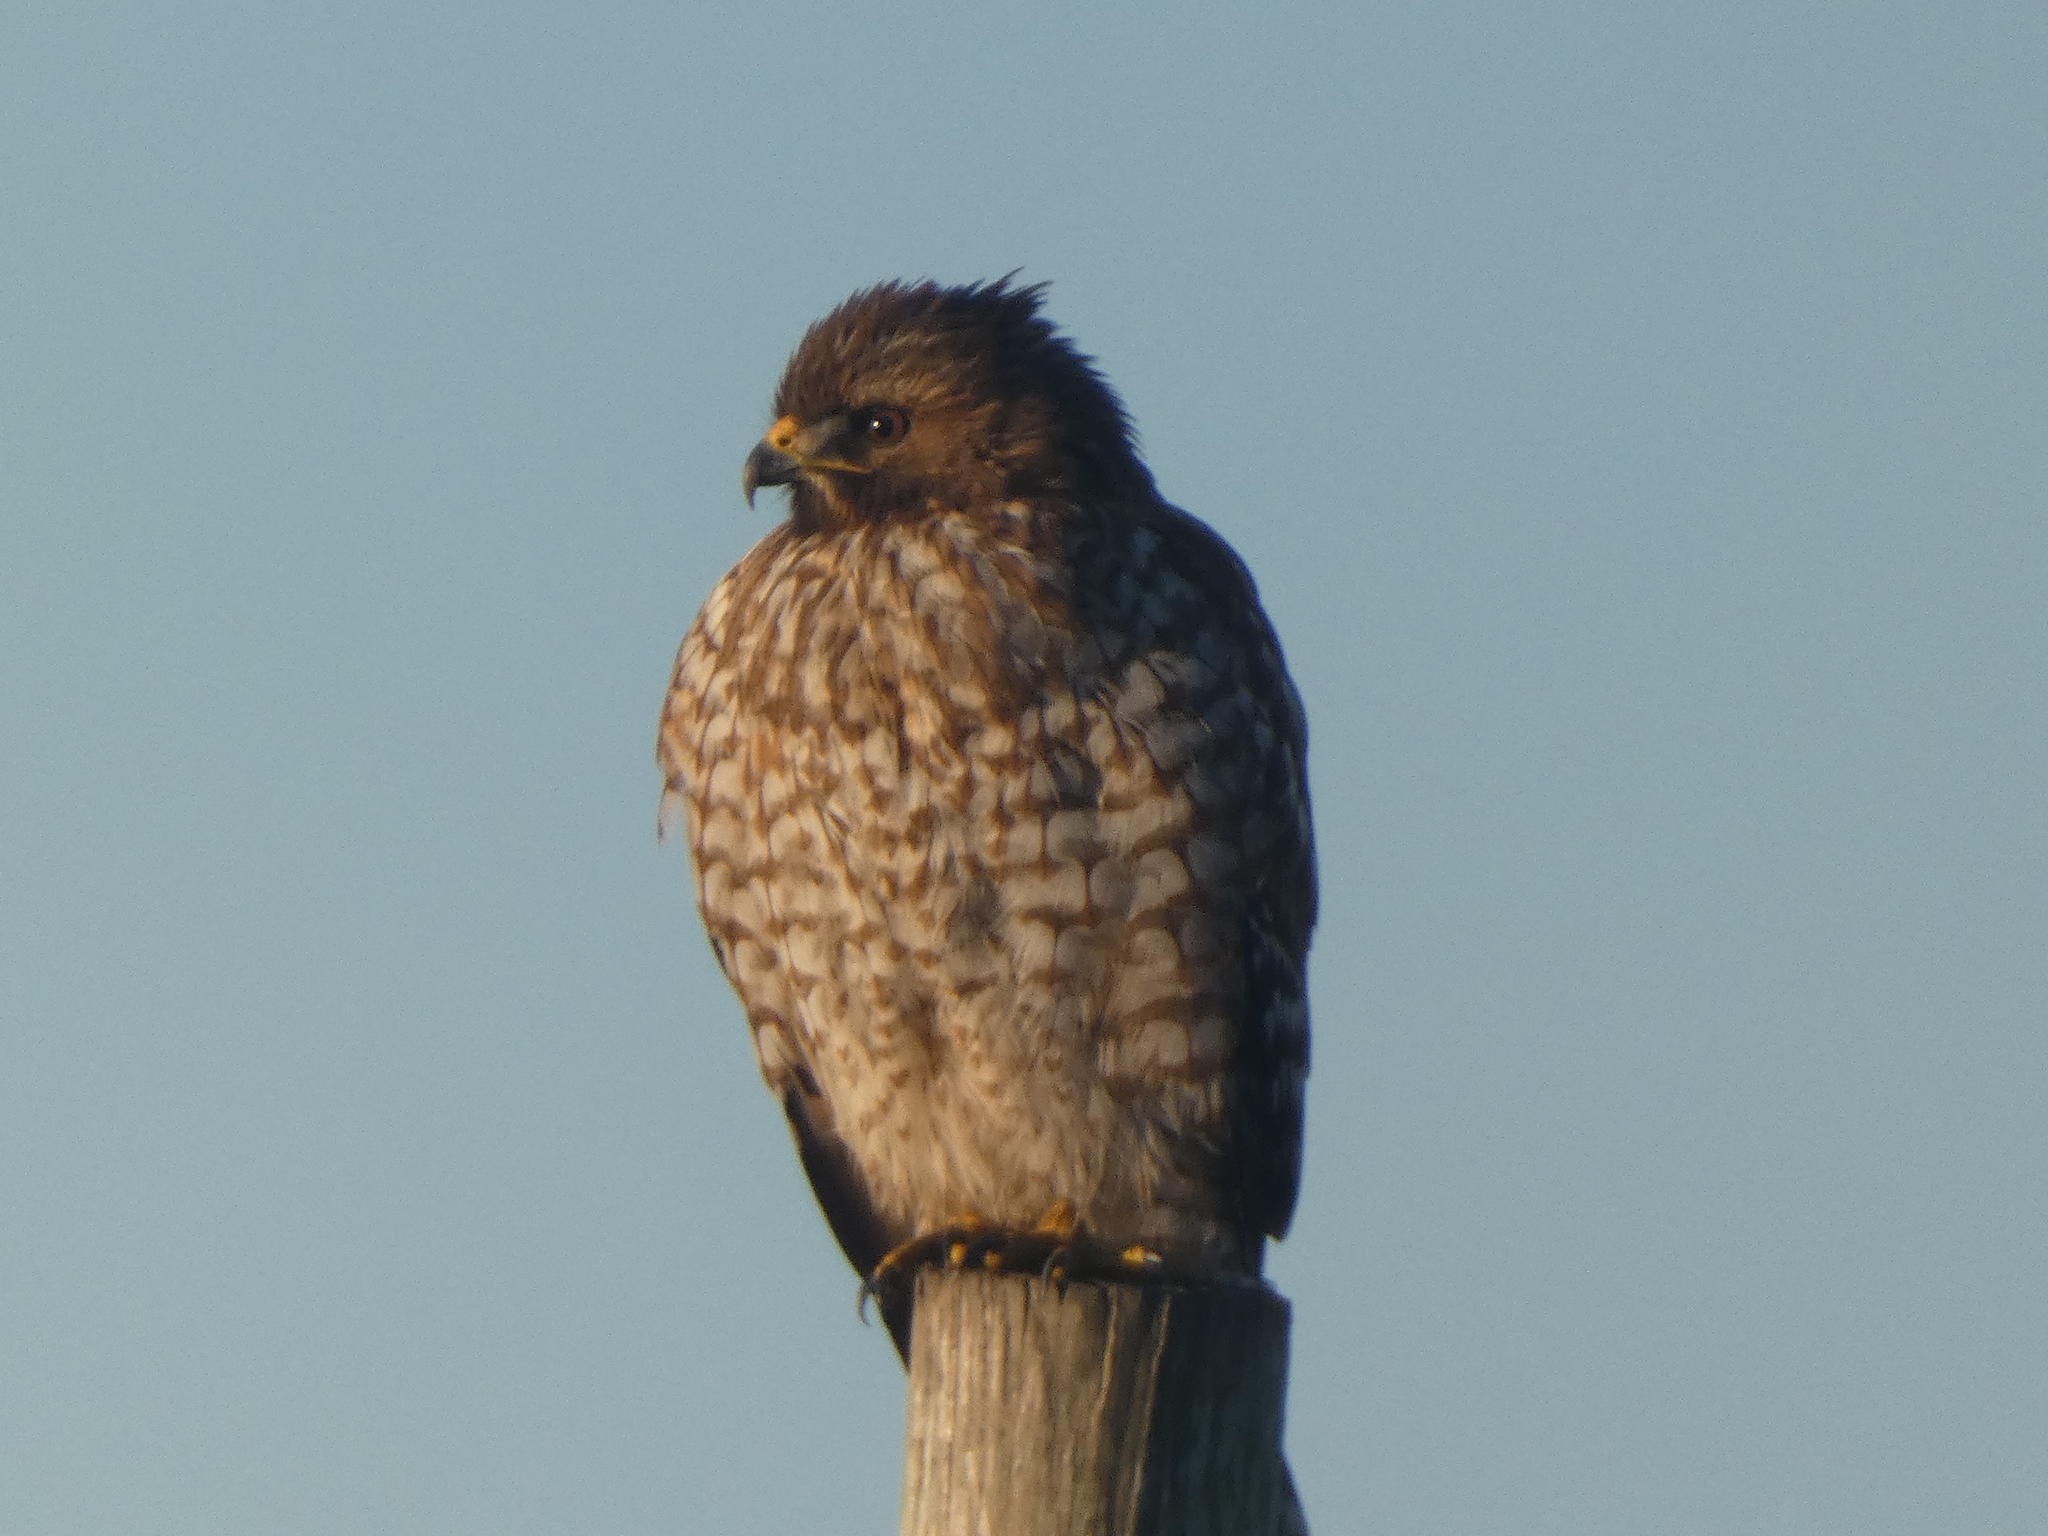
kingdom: Animalia
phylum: Chordata
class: Aves
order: Accipitriformes
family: Accipitridae
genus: Buteo
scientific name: Buteo lineatus
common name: Red-shouldered hawk
